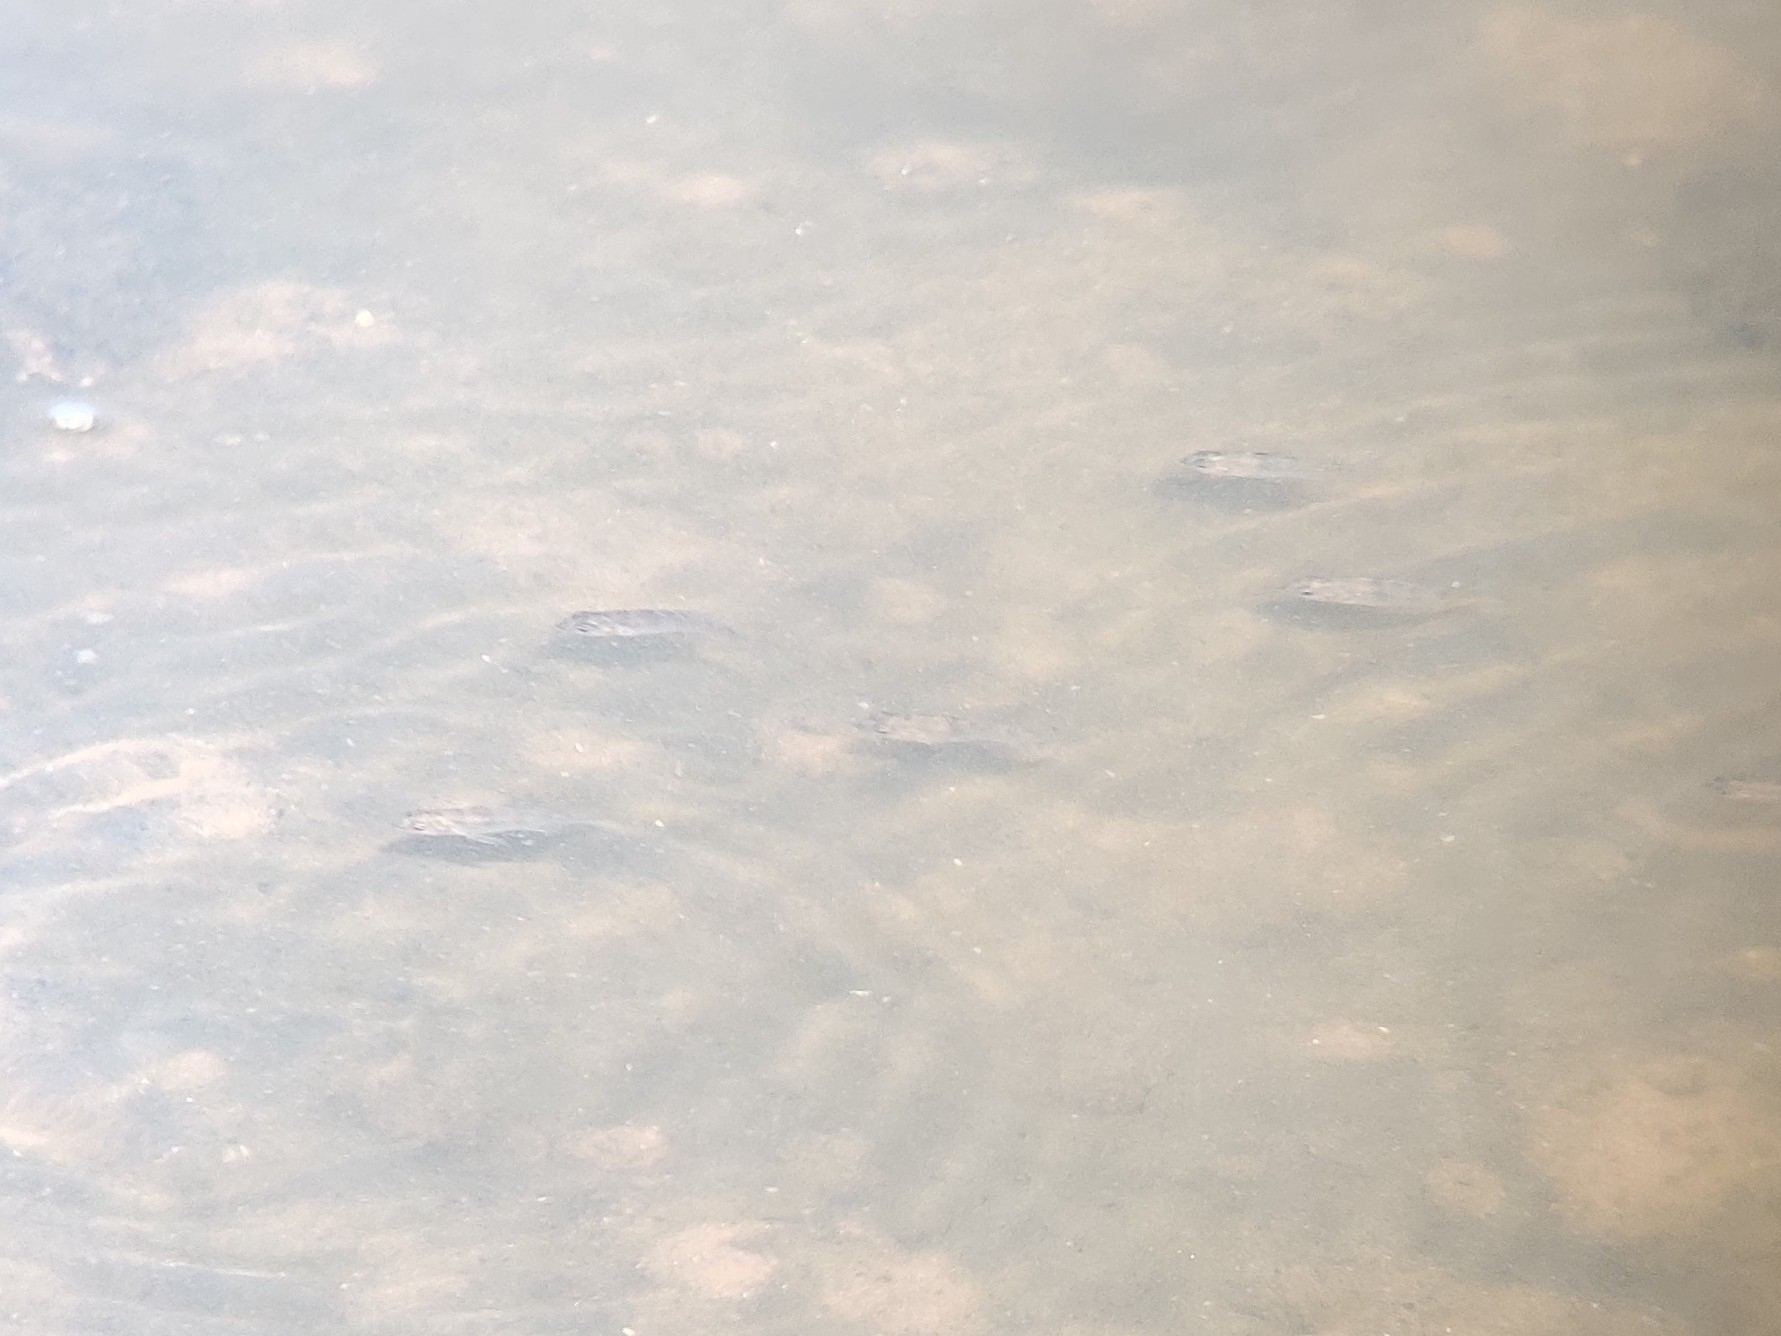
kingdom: Animalia
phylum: Chordata
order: Perciformes
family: Sparidae
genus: Acanthopagrus
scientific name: Acanthopagrus australis
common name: Surf bream
